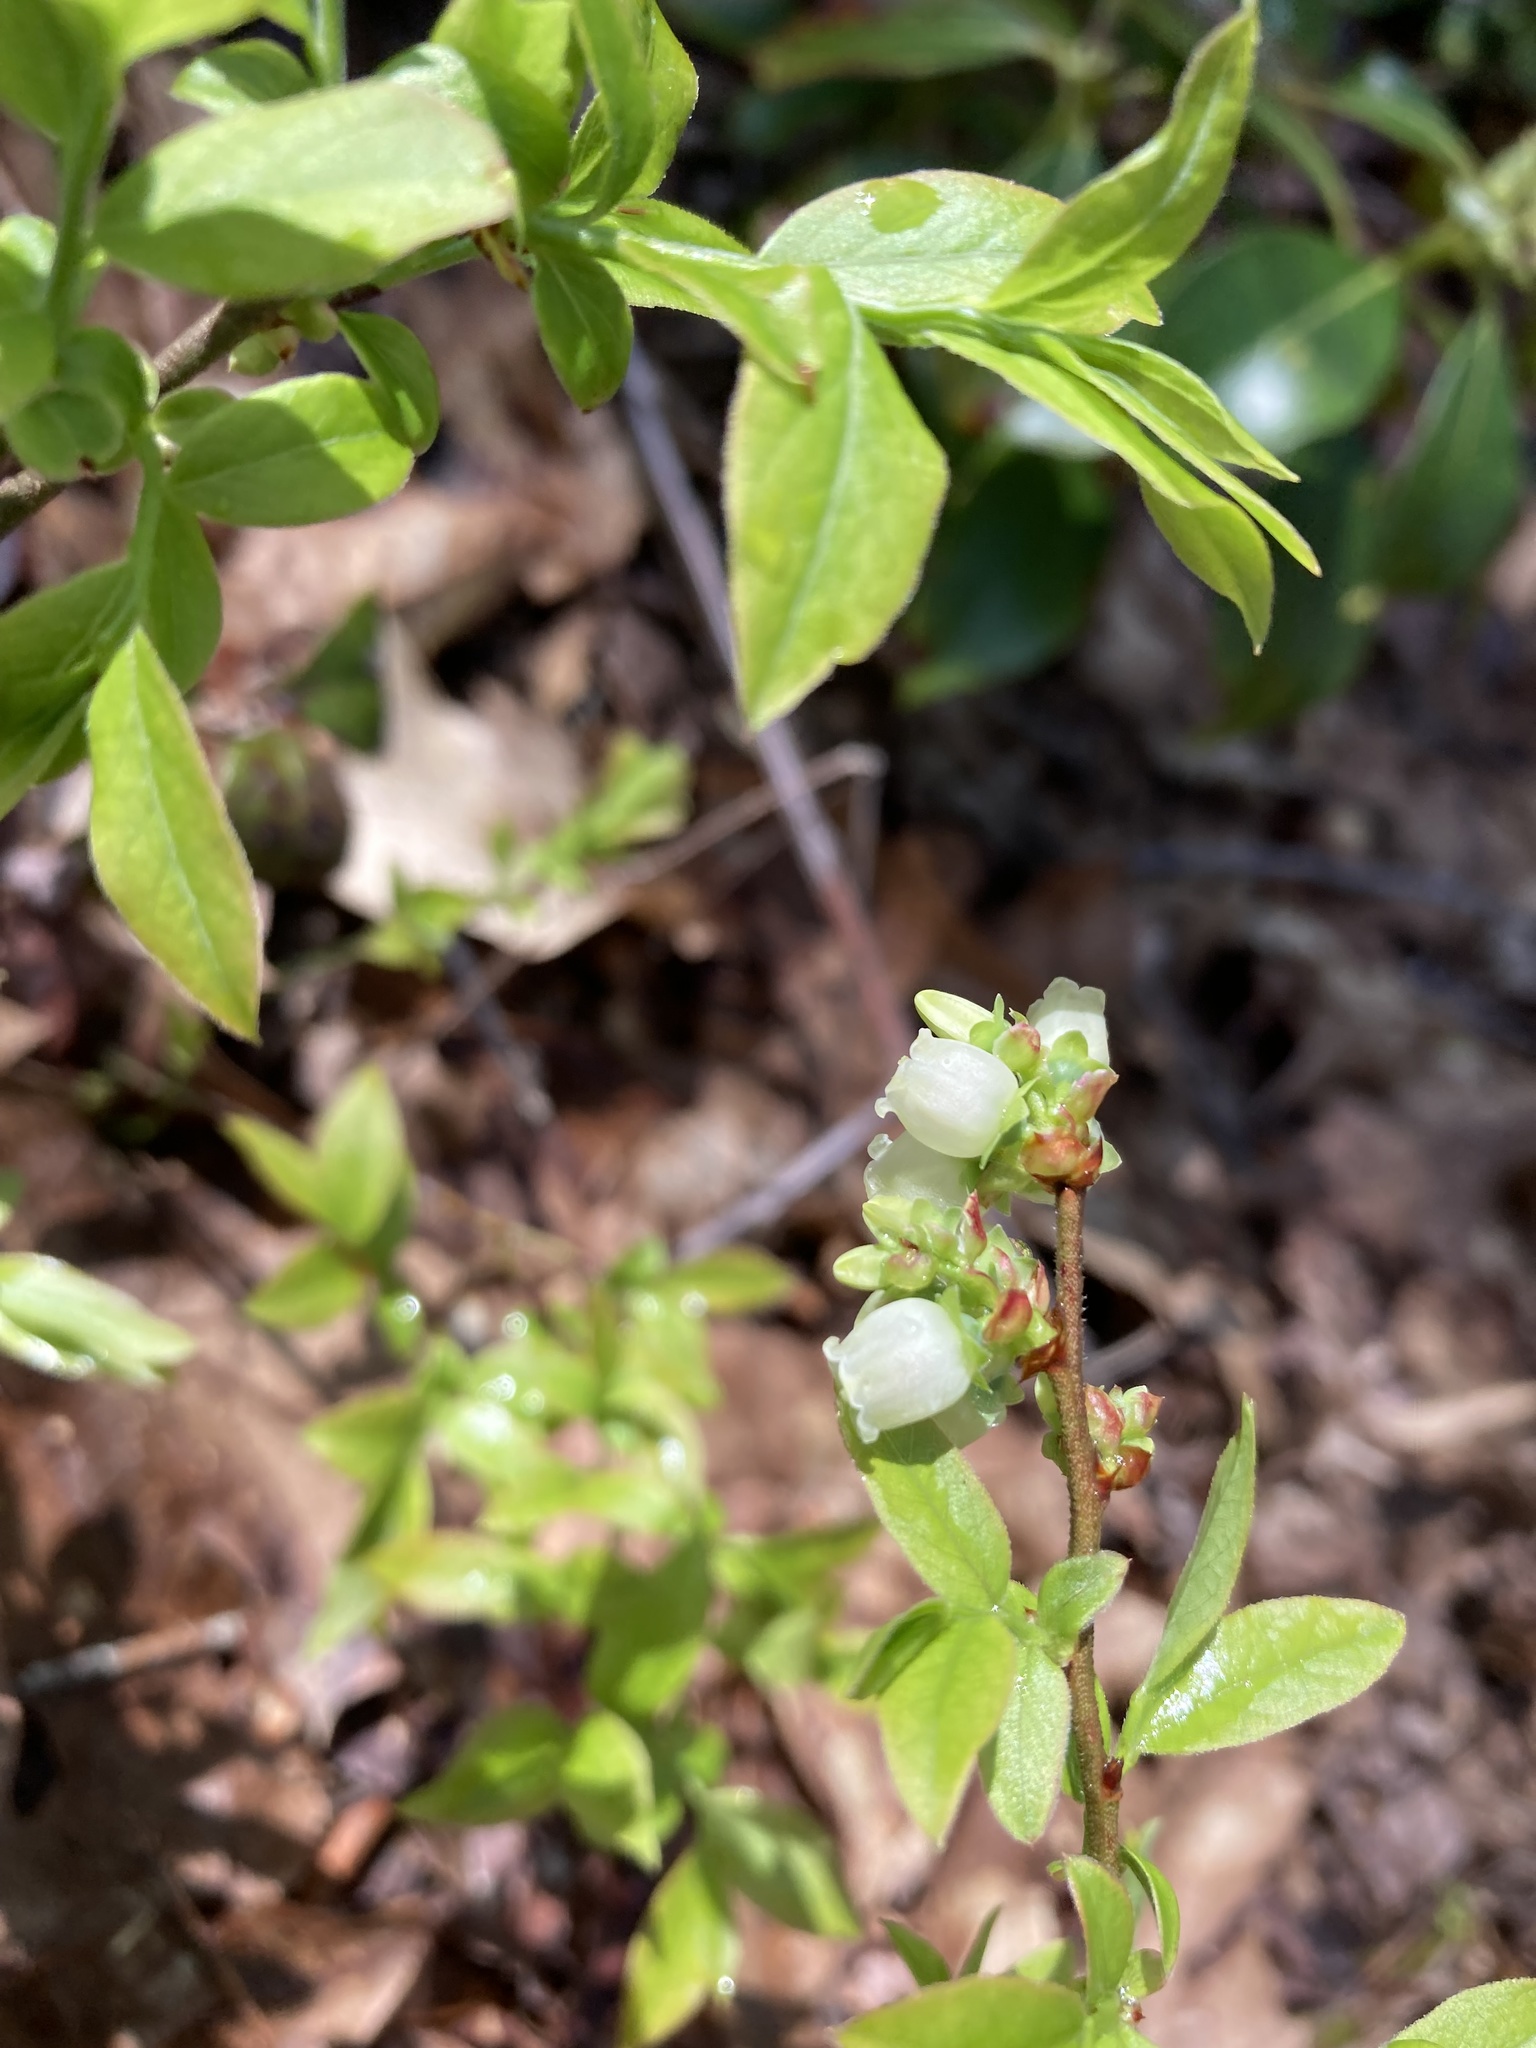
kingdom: Plantae
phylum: Tracheophyta
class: Magnoliopsida
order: Ericales
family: Ericaceae
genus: Vaccinium
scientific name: Vaccinium angustifolium
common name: Early lowbush blueberry
